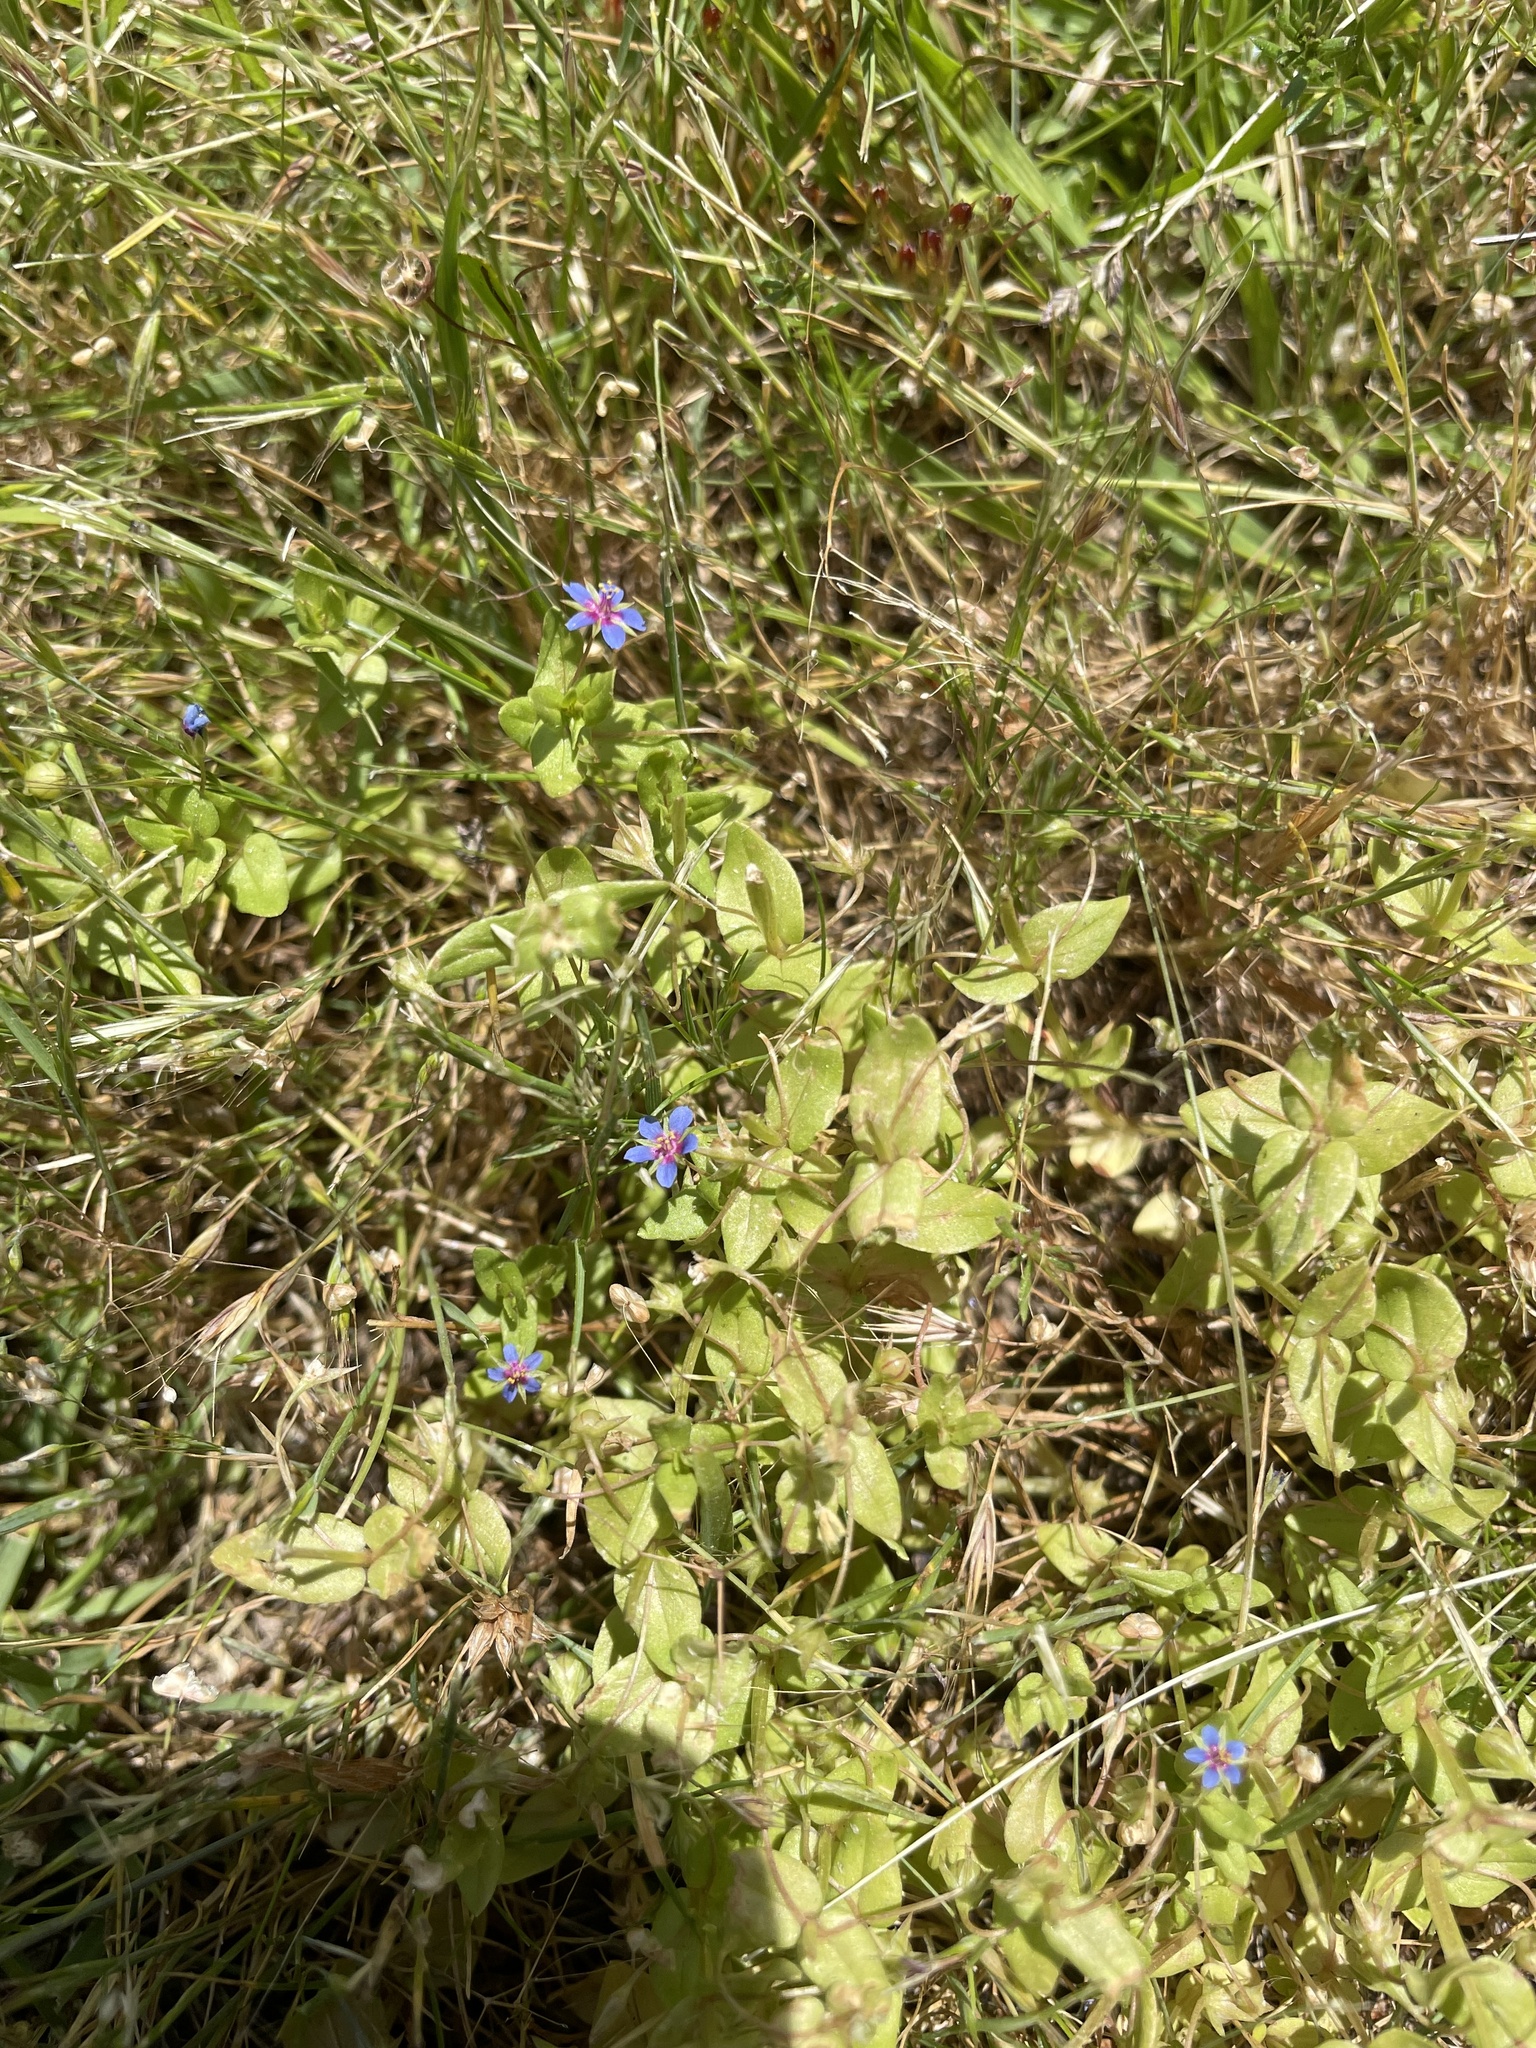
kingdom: Plantae
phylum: Tracheophyta
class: Magnoliopsida
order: Ericales
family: Primulaceae
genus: Lysimachia
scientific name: Lysimachia loeflingii
